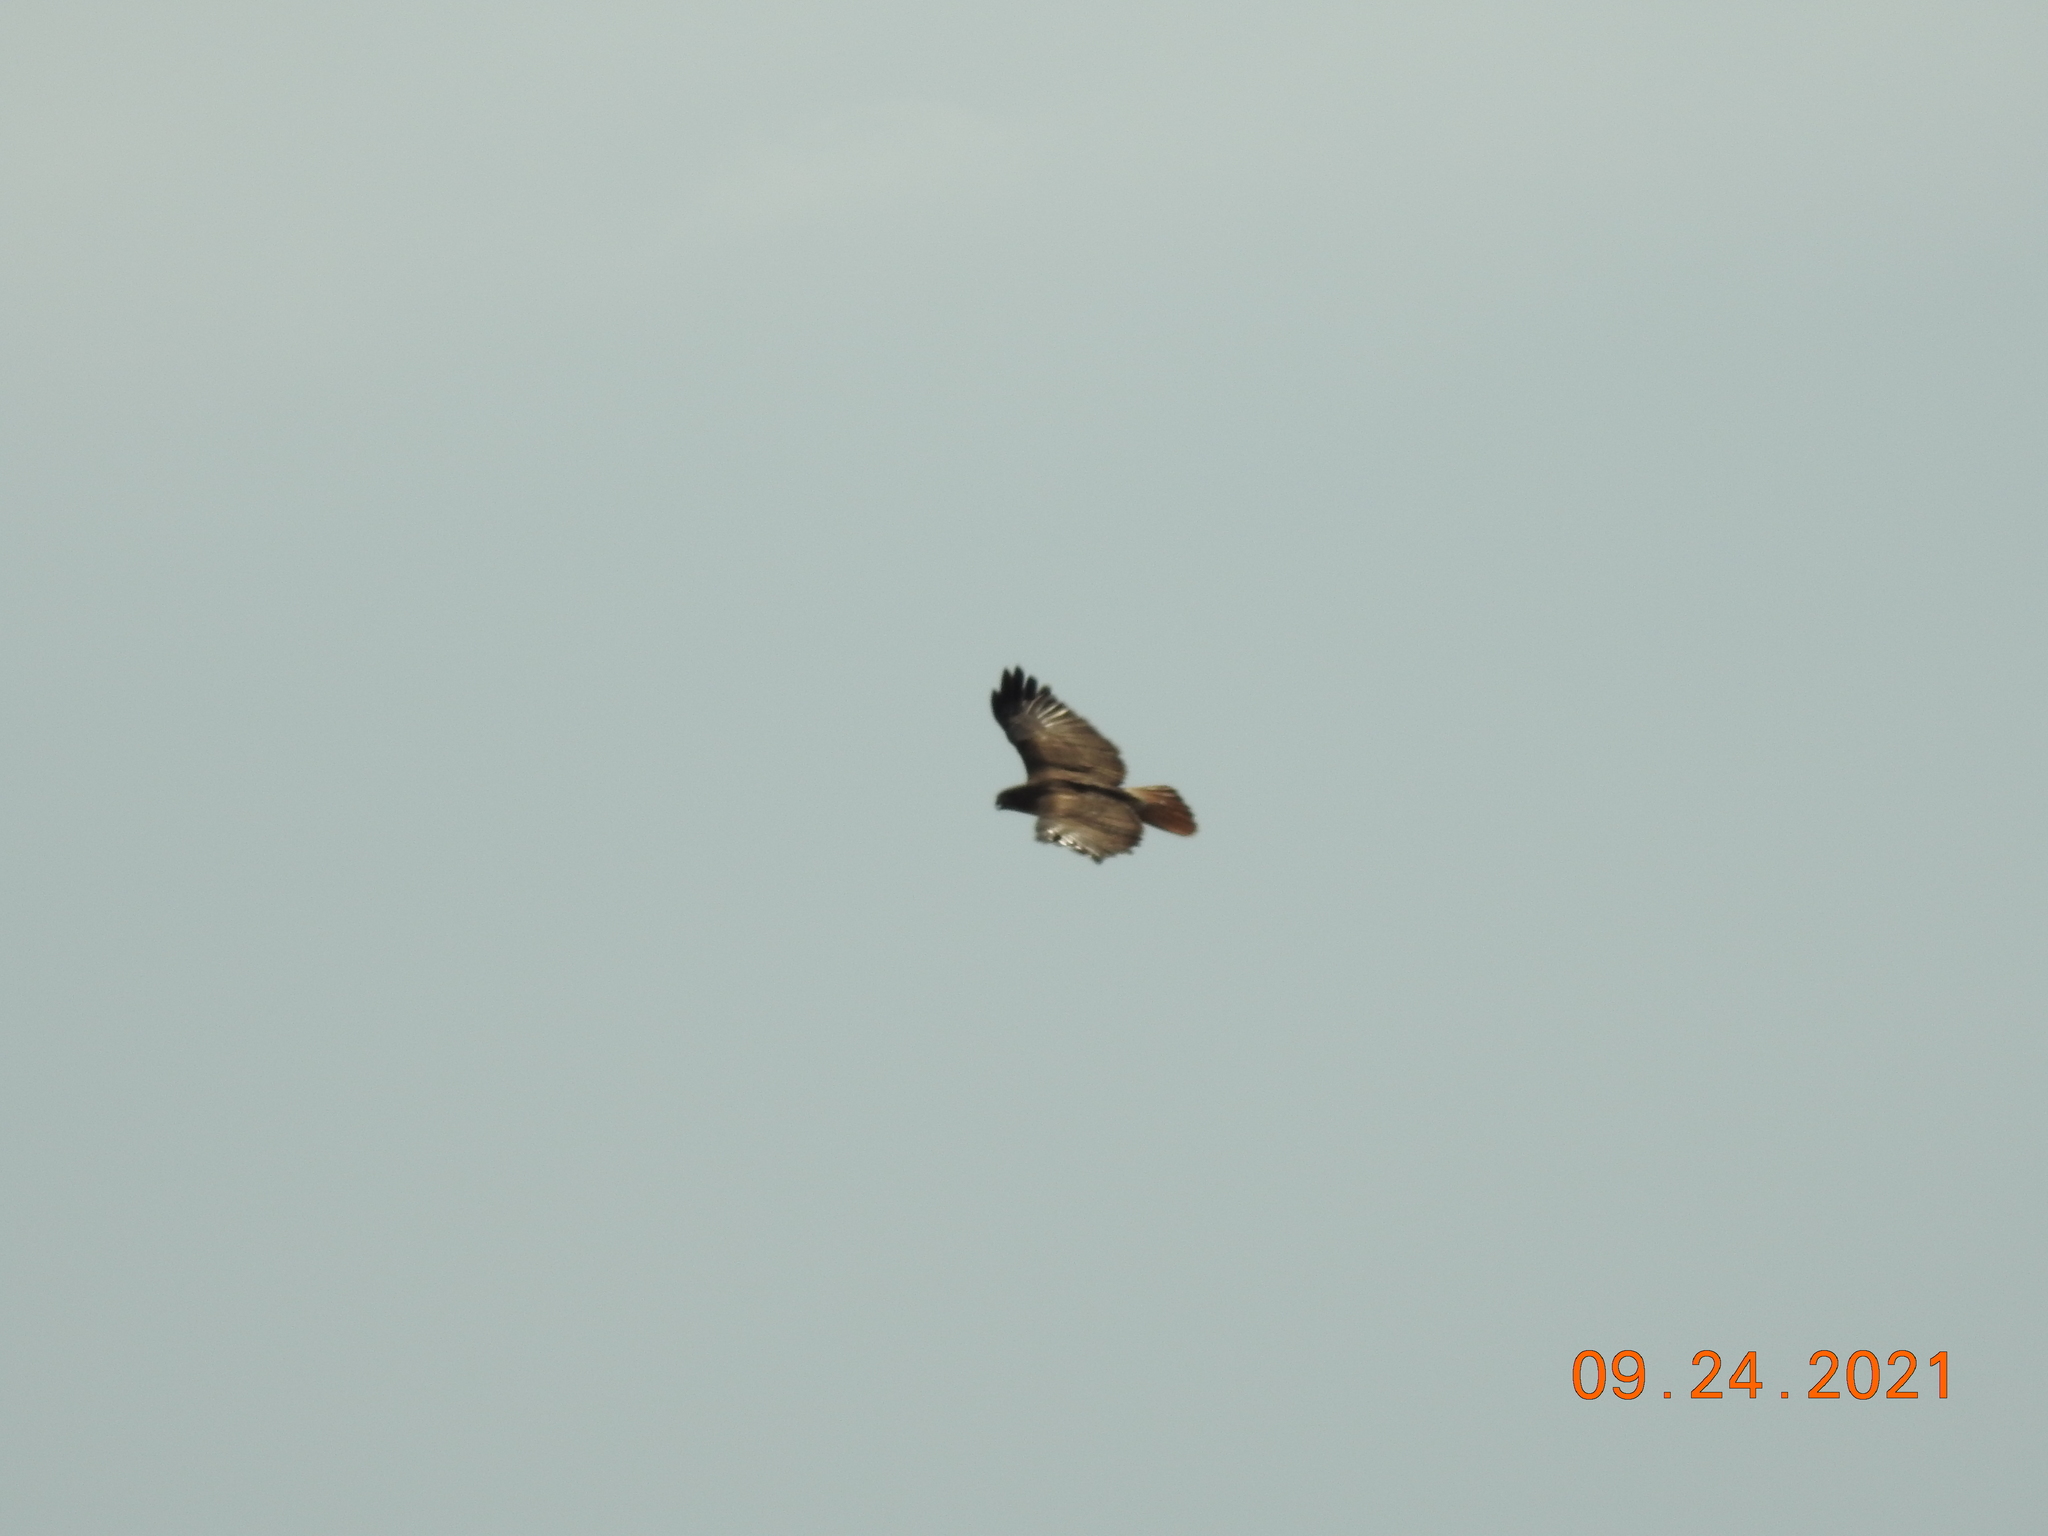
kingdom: Animalia
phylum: Chordata
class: Aves
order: Accipitriformes
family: Accipitridae
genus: Buteo
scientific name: Buteo jamaicensis
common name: Red-tailed hawk
